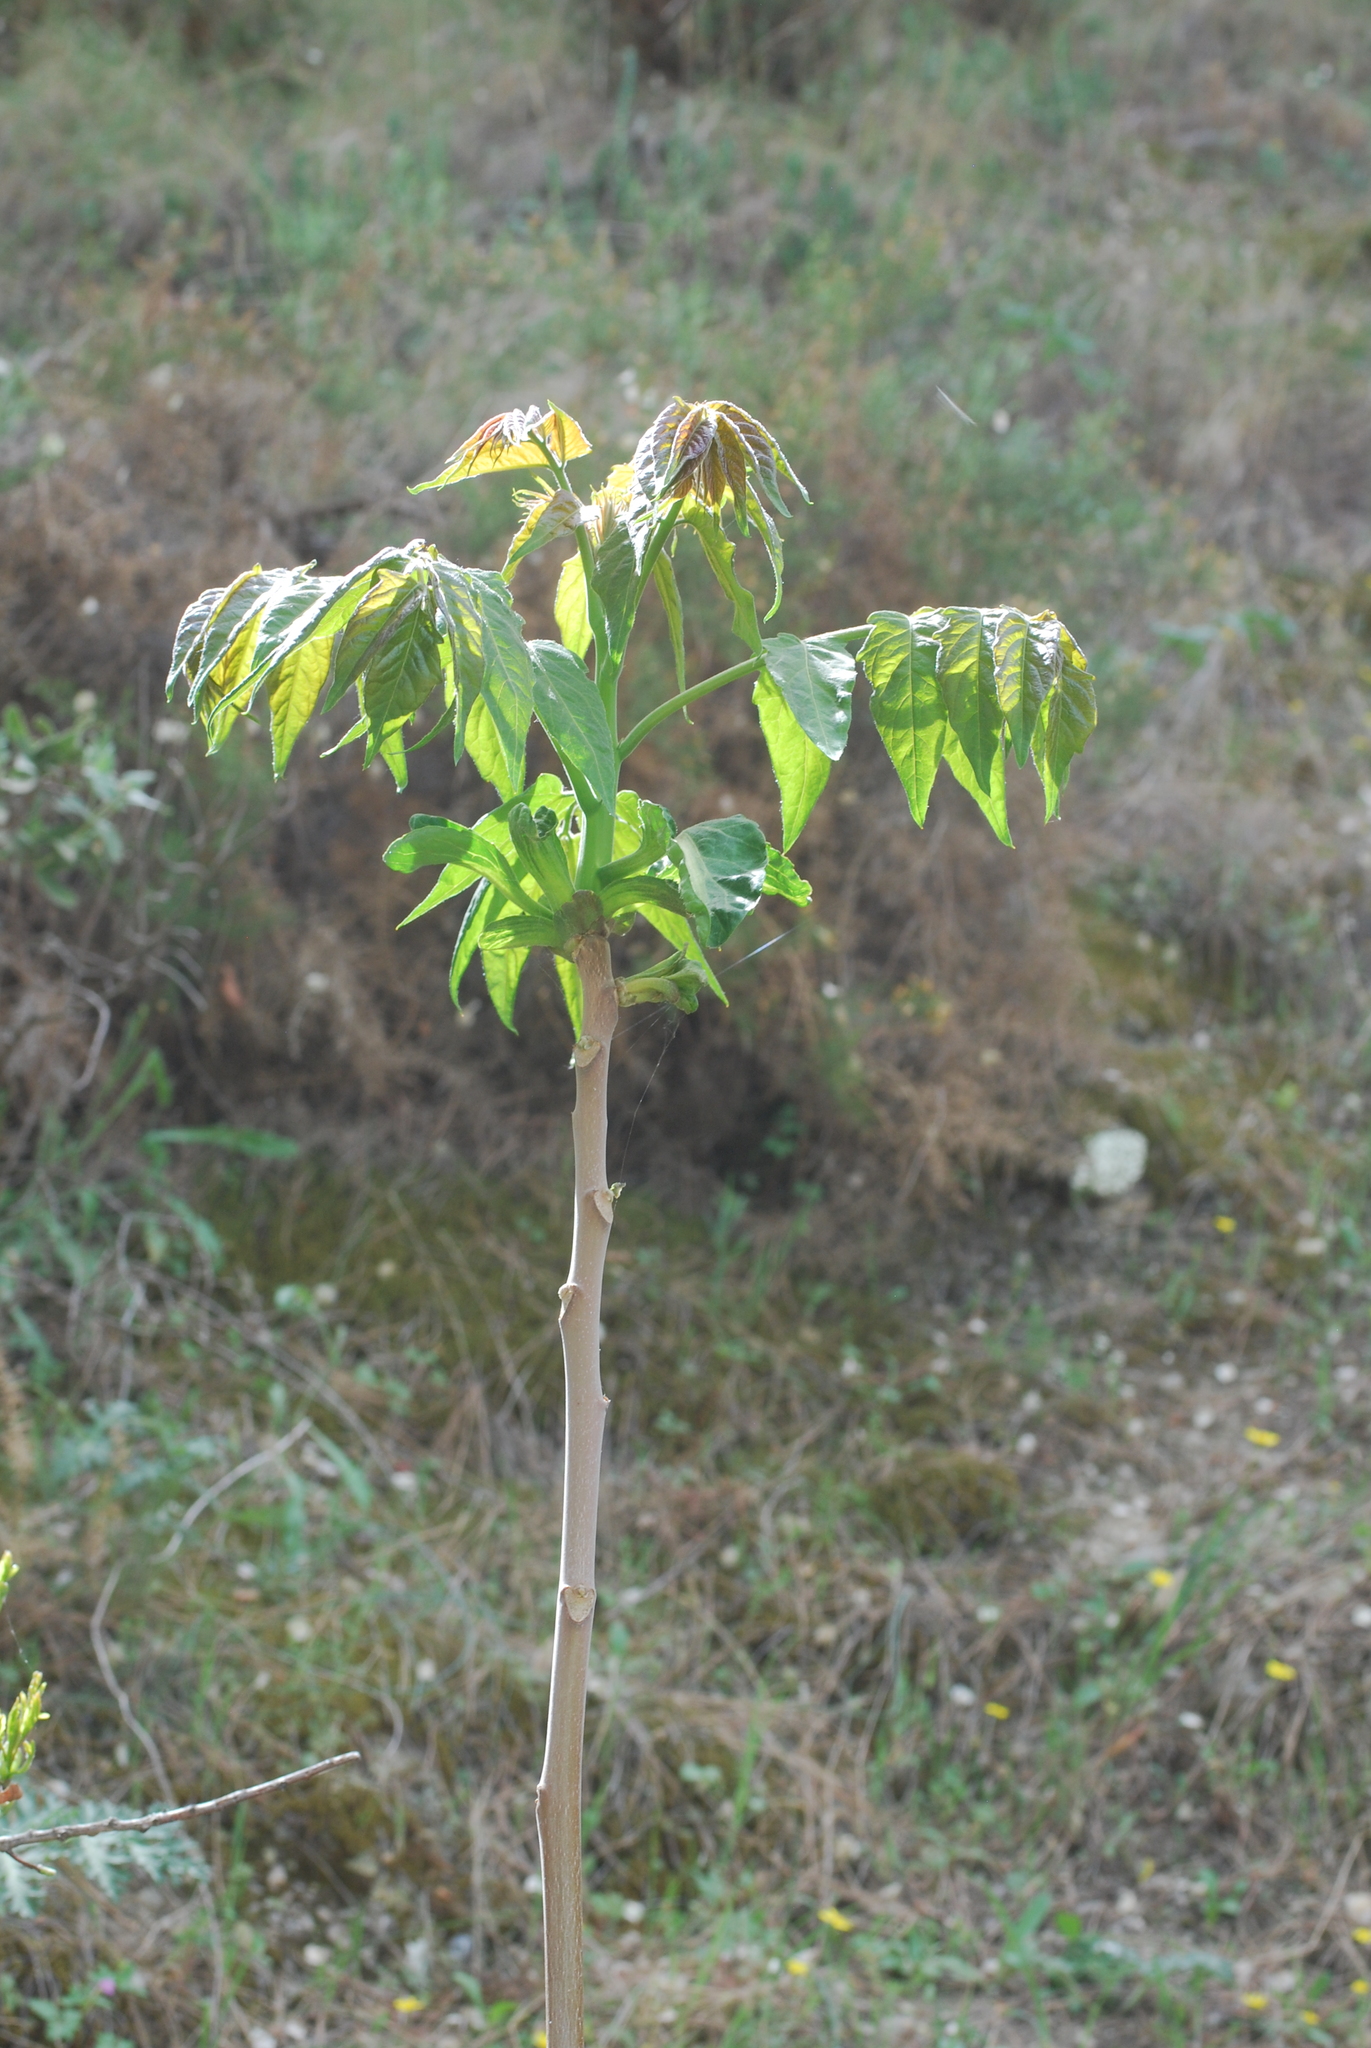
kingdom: Plantae
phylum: Tracheophyta
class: Magnoliopsida
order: Sapindales
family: Simaroubaceae
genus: Ailanthus
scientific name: Ailanthus altissima
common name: Tree-of-heaven
